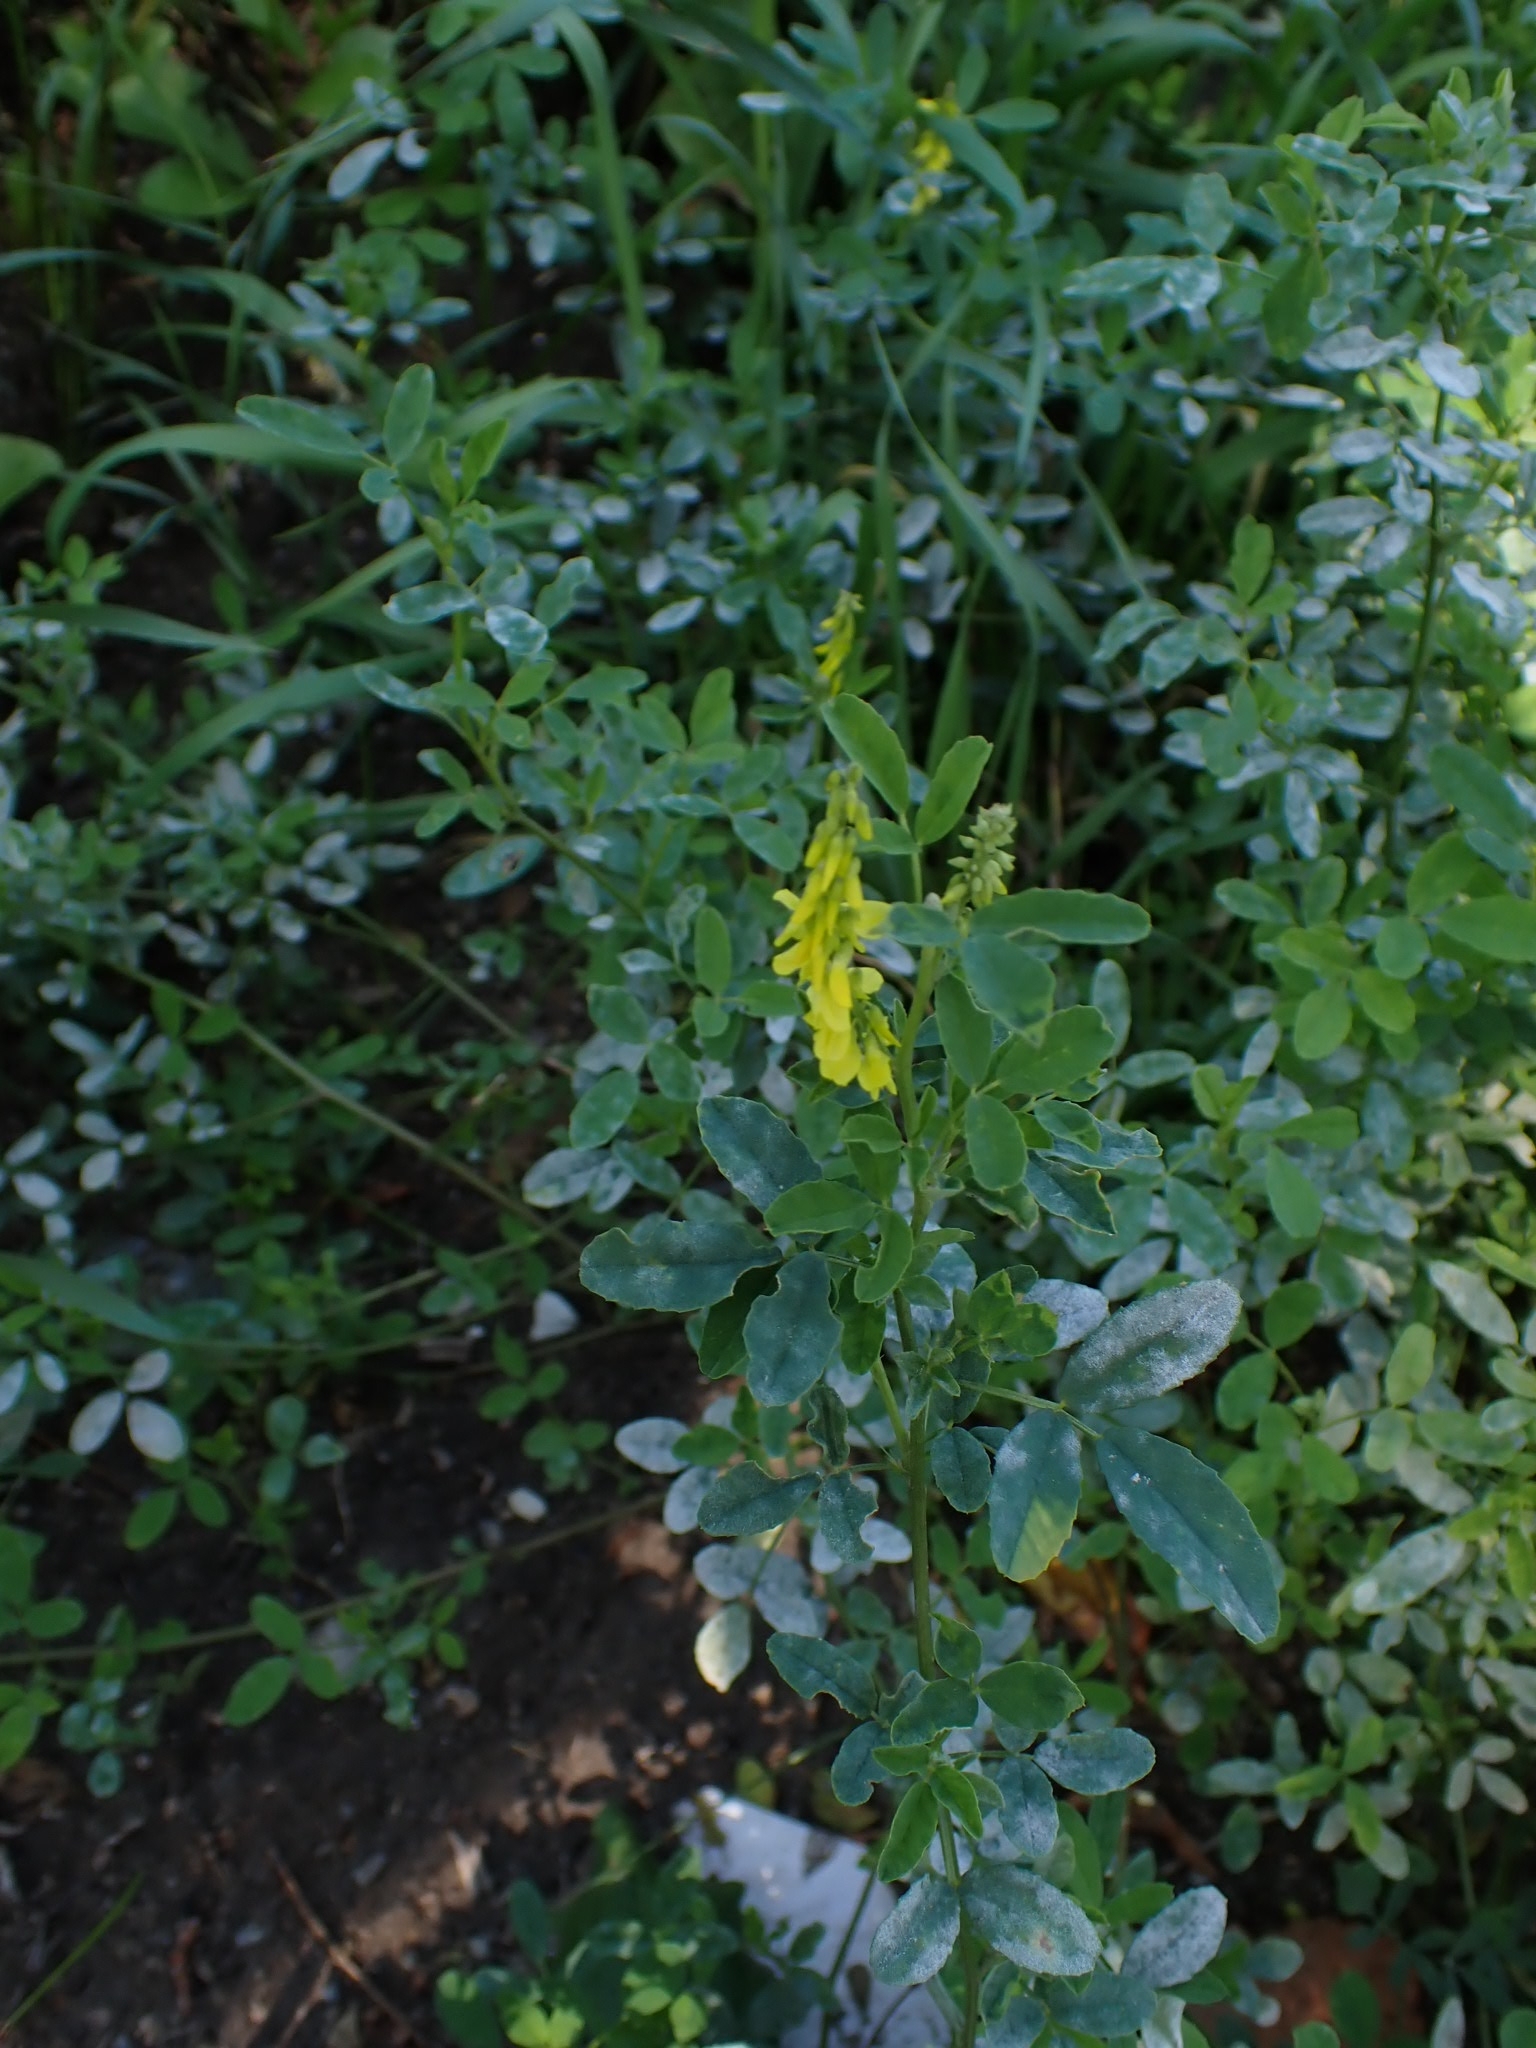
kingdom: Plantae
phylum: Tracheophyta
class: Magnoliopsida
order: Fabales
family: Fabaceae
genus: Melilotus
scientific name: Melilotus officinalis
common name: Sweetclover
